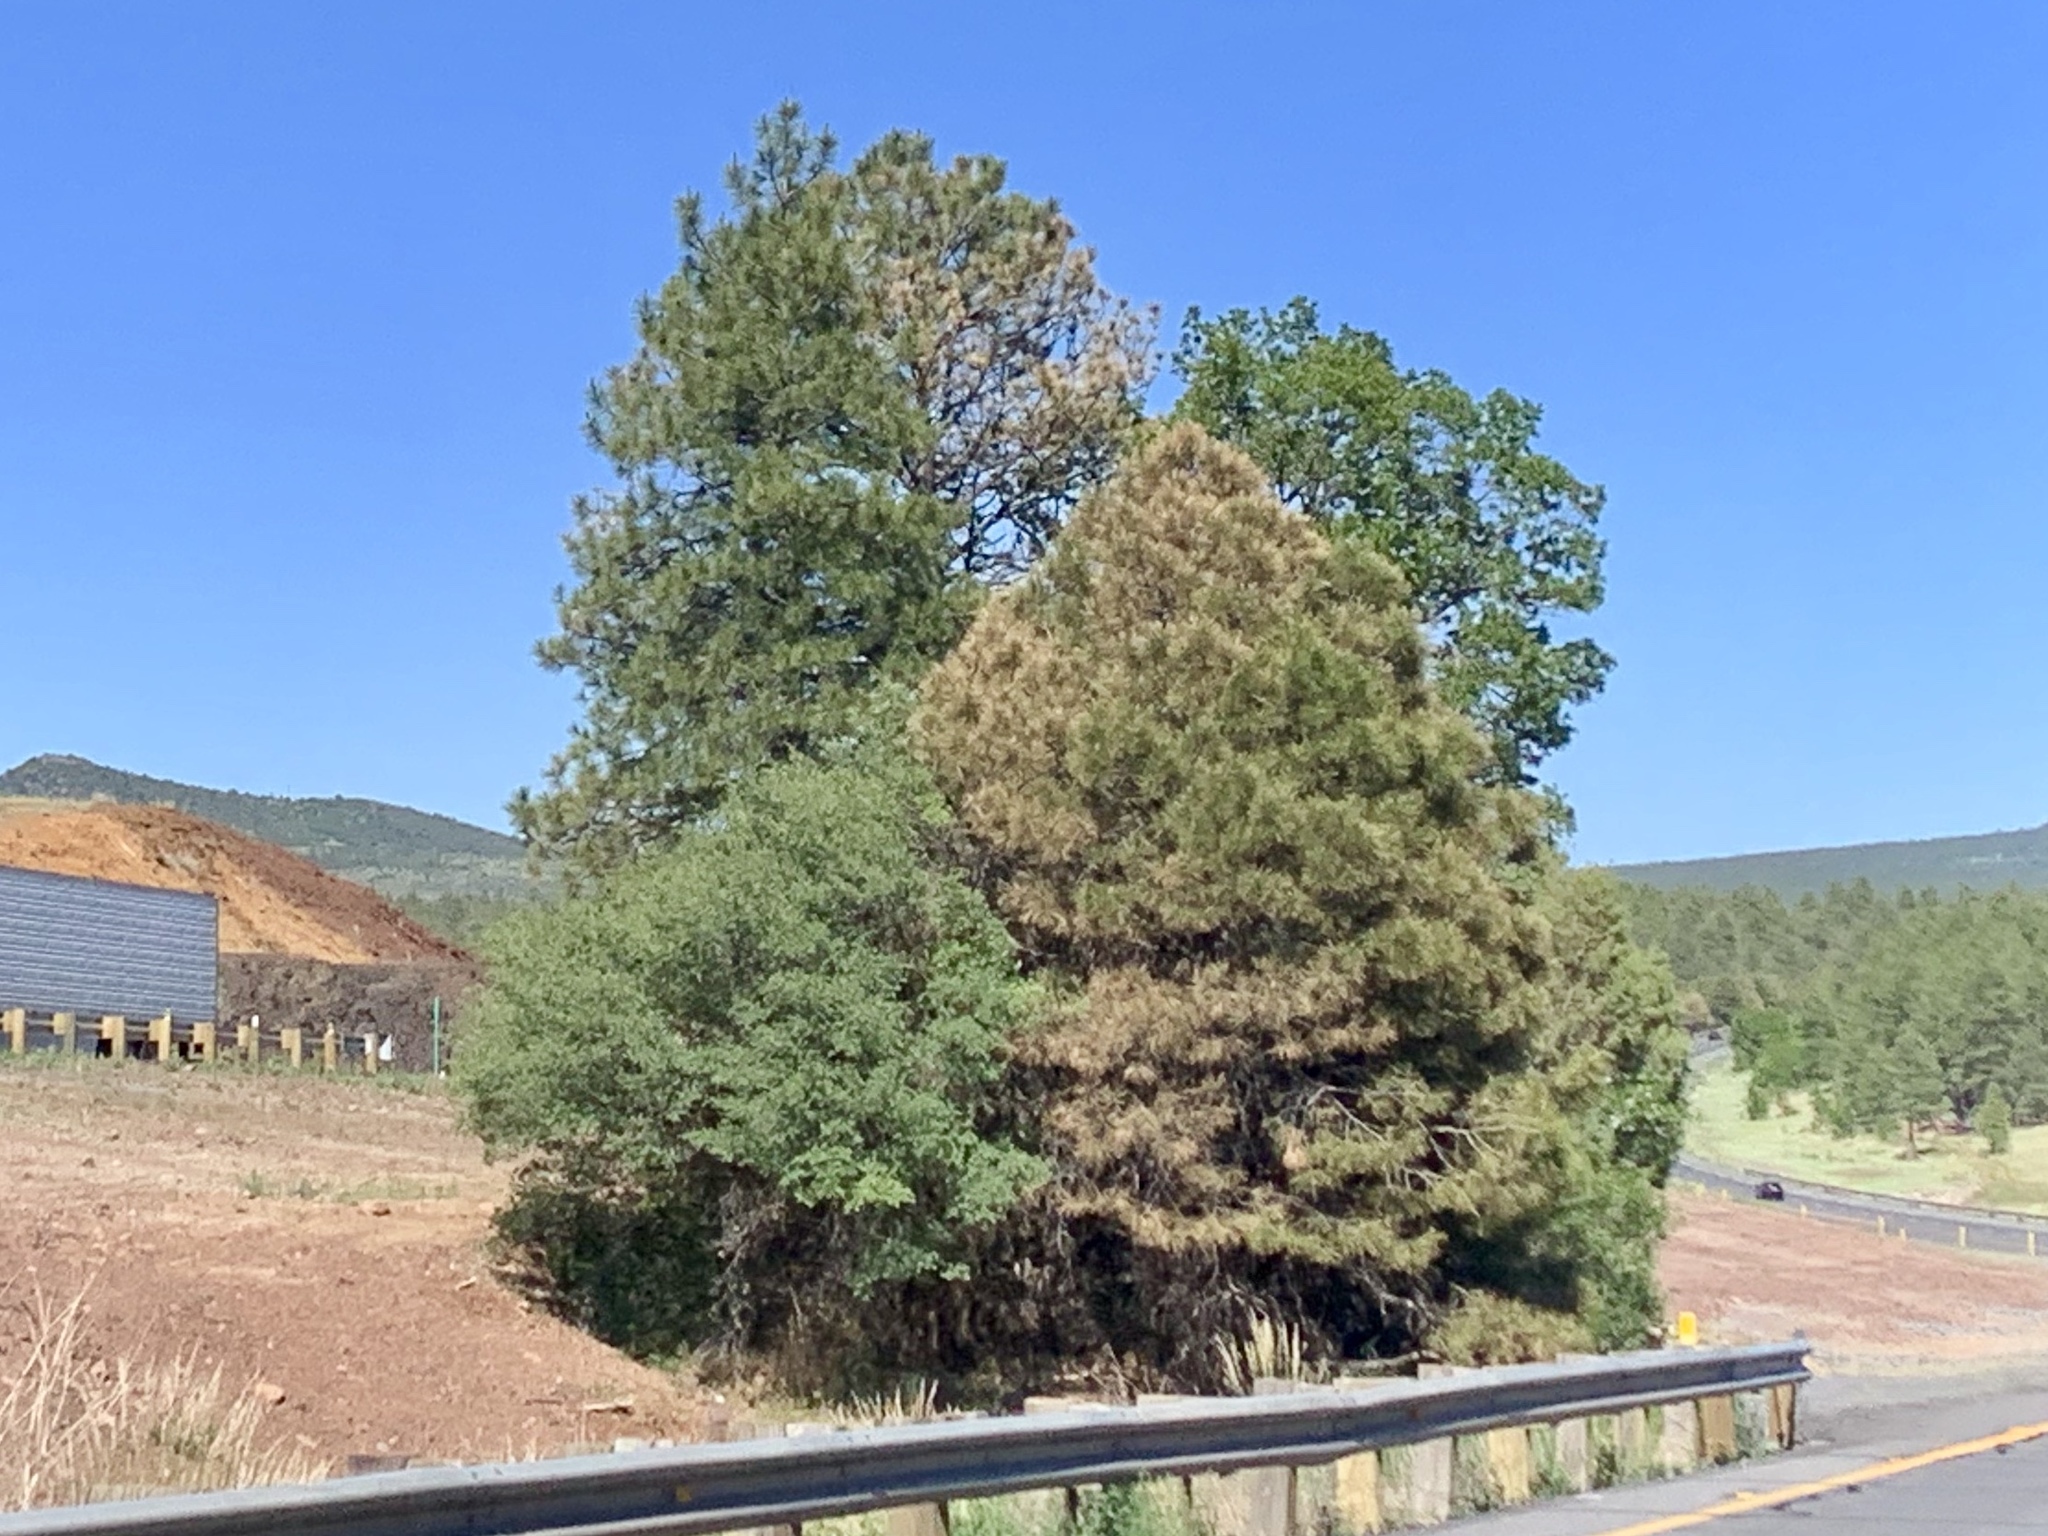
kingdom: Plantae
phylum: Tracheophyta
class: Pinopsida
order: Pinales
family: Pinaceae
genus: Pinus
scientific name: Pinus ponderosa
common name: Western yellow-pine
